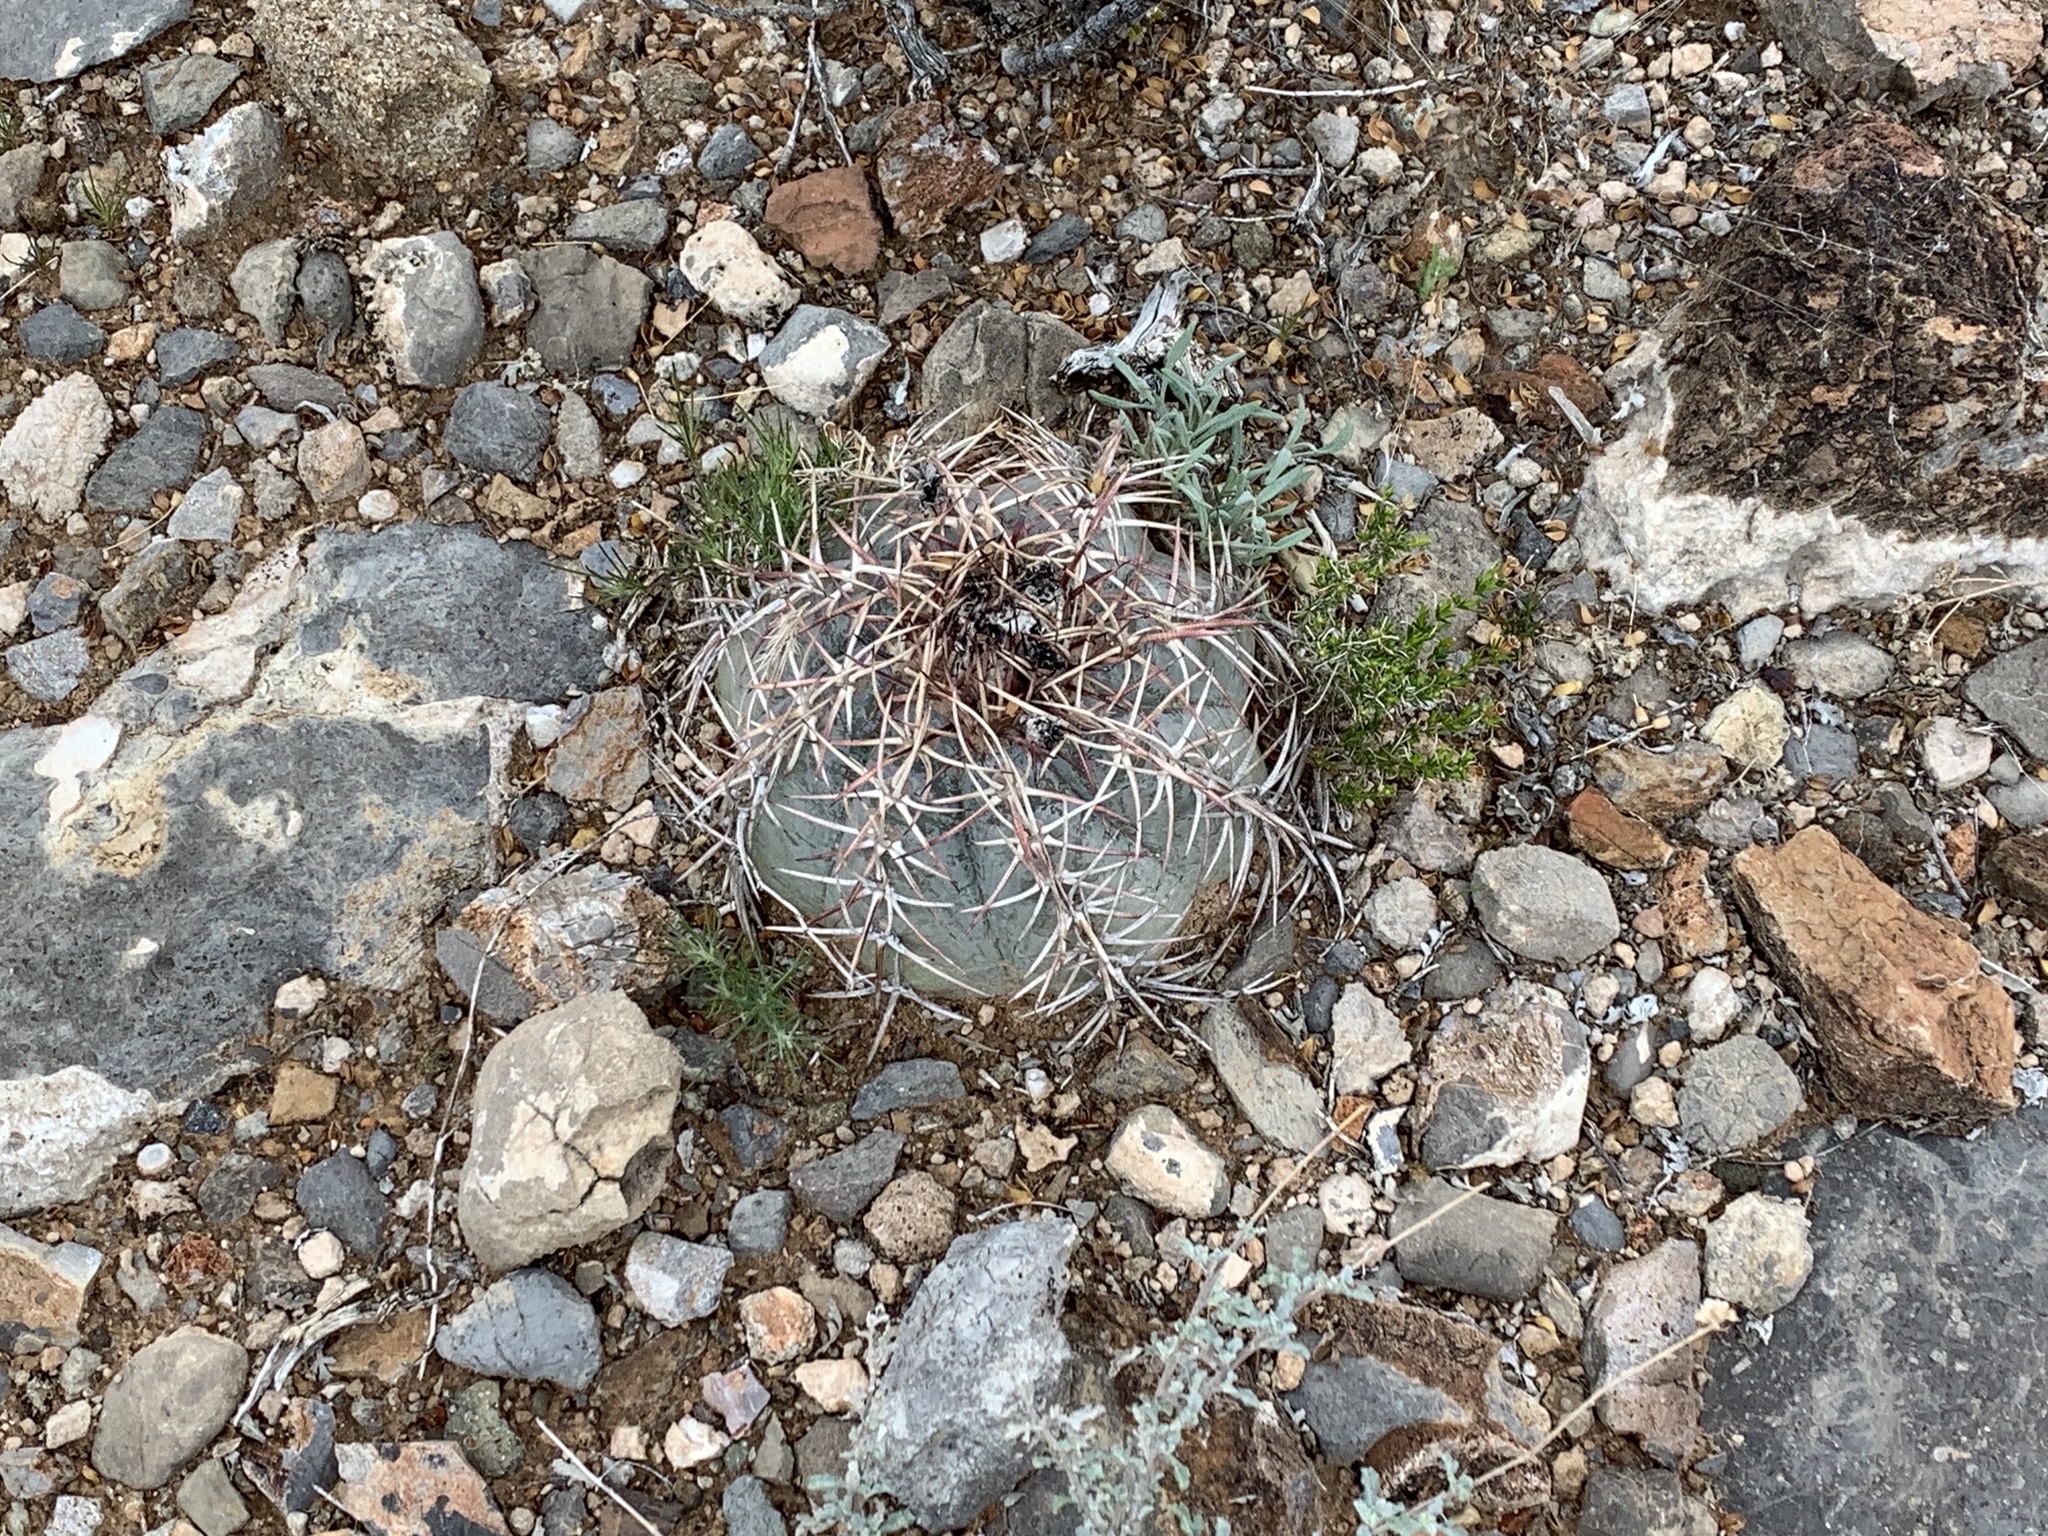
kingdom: Plantae
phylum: Tracheophyta
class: Magnoliopsida
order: Caryophyllales
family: Cactaceae
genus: Echinocactus
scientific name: Echinocactus horizonthalonius
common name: Devilshead
